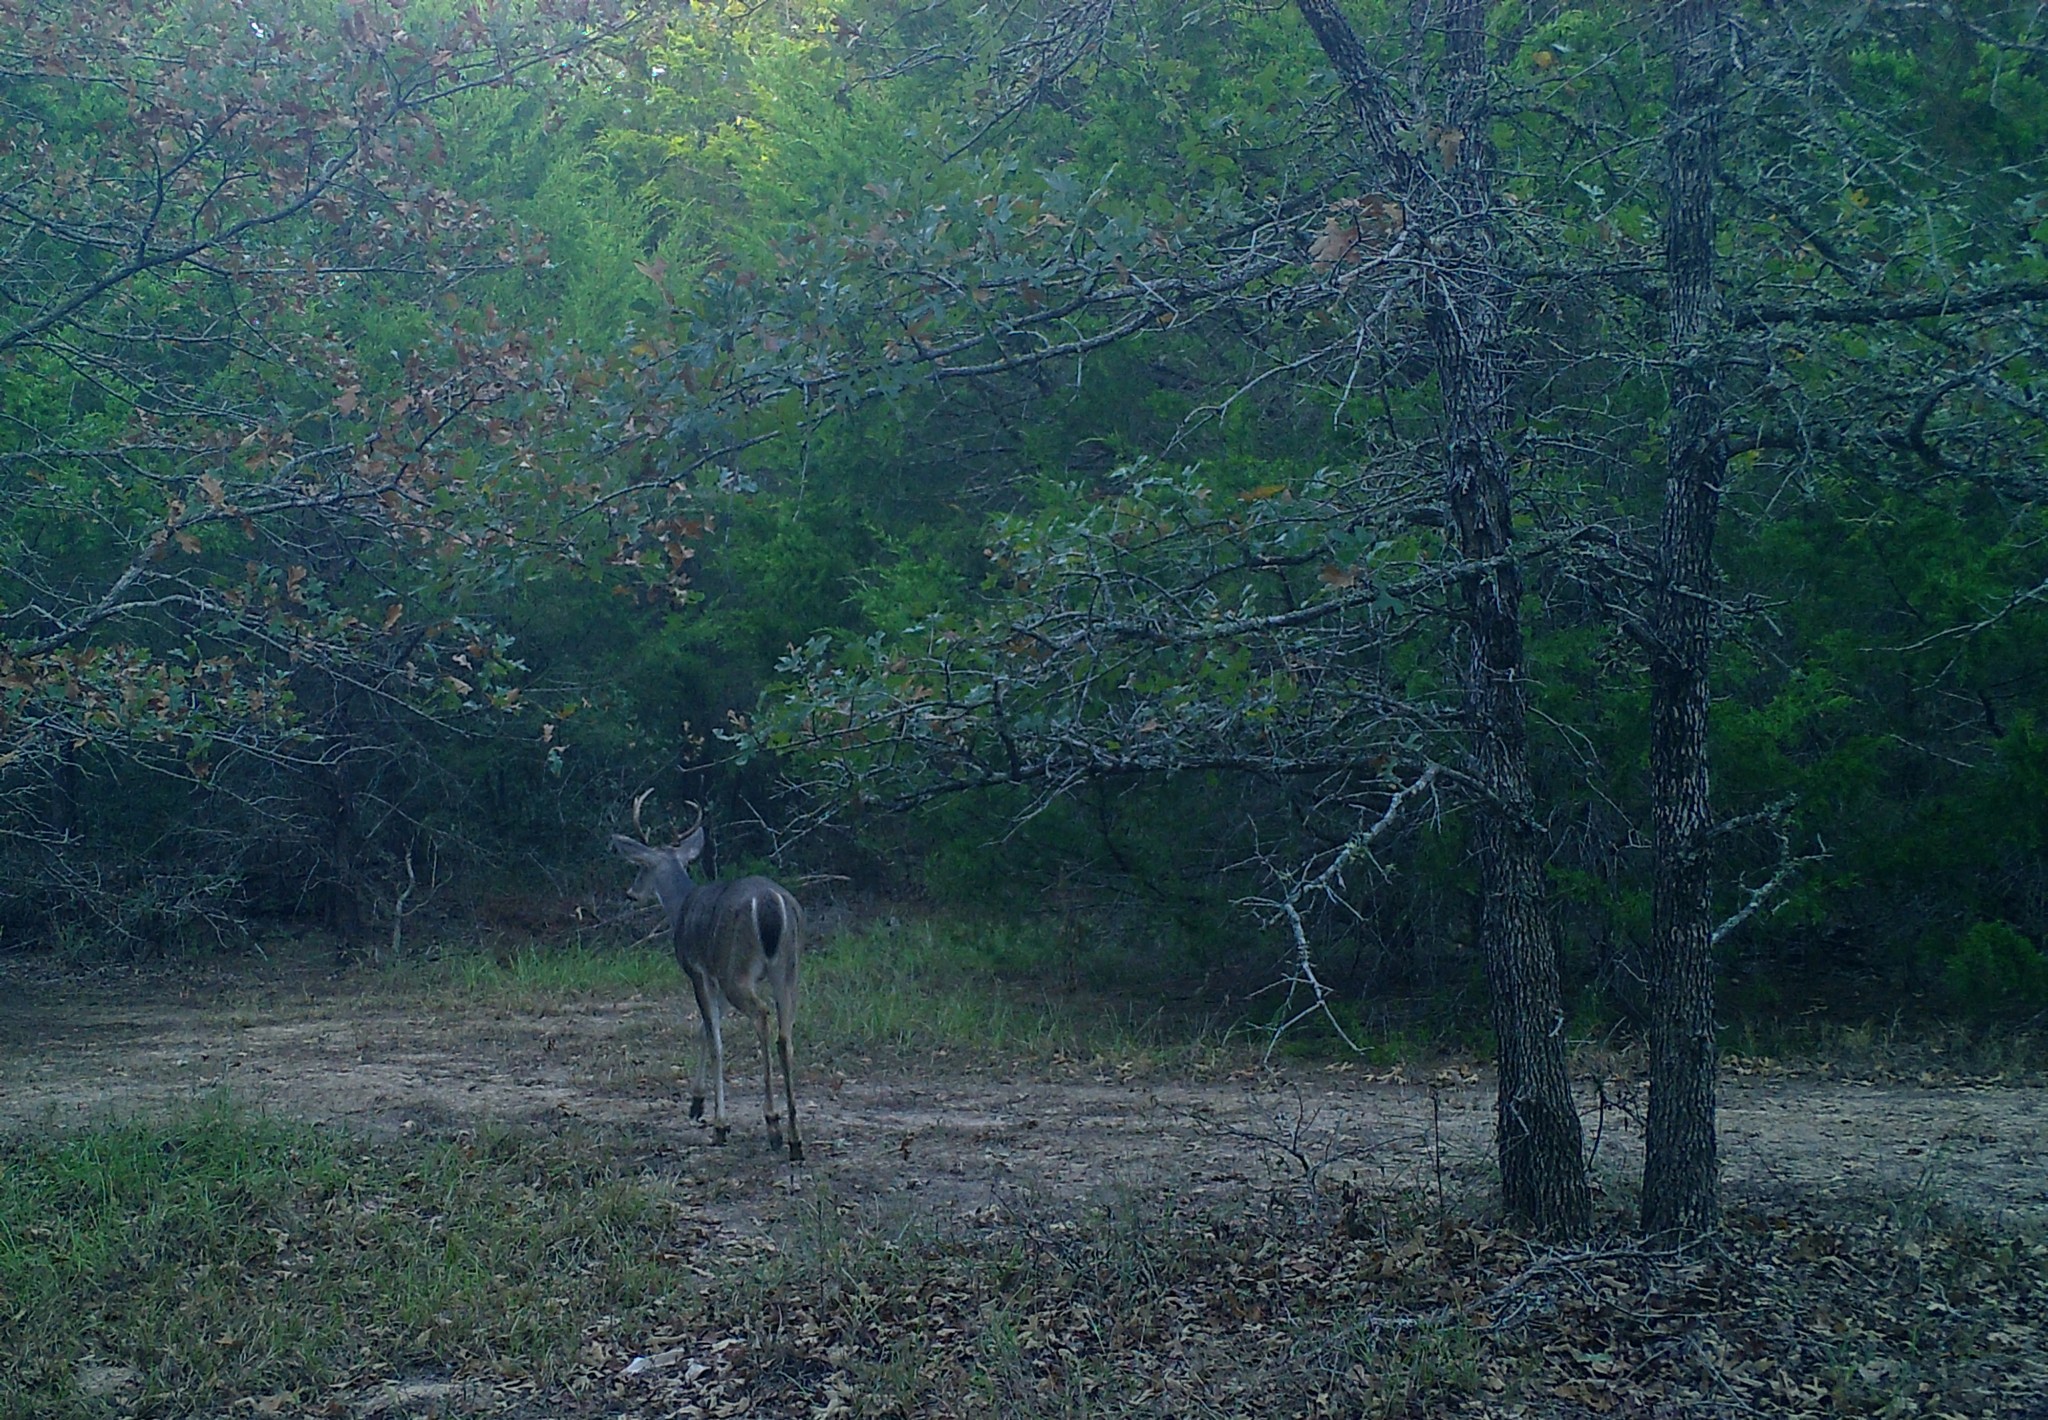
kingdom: Animalia
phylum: Chordata
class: Mammalia
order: Artiodactyla
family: Cervidae
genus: Odocoileus
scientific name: Odocoileus virginianus
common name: White-tailed deer
